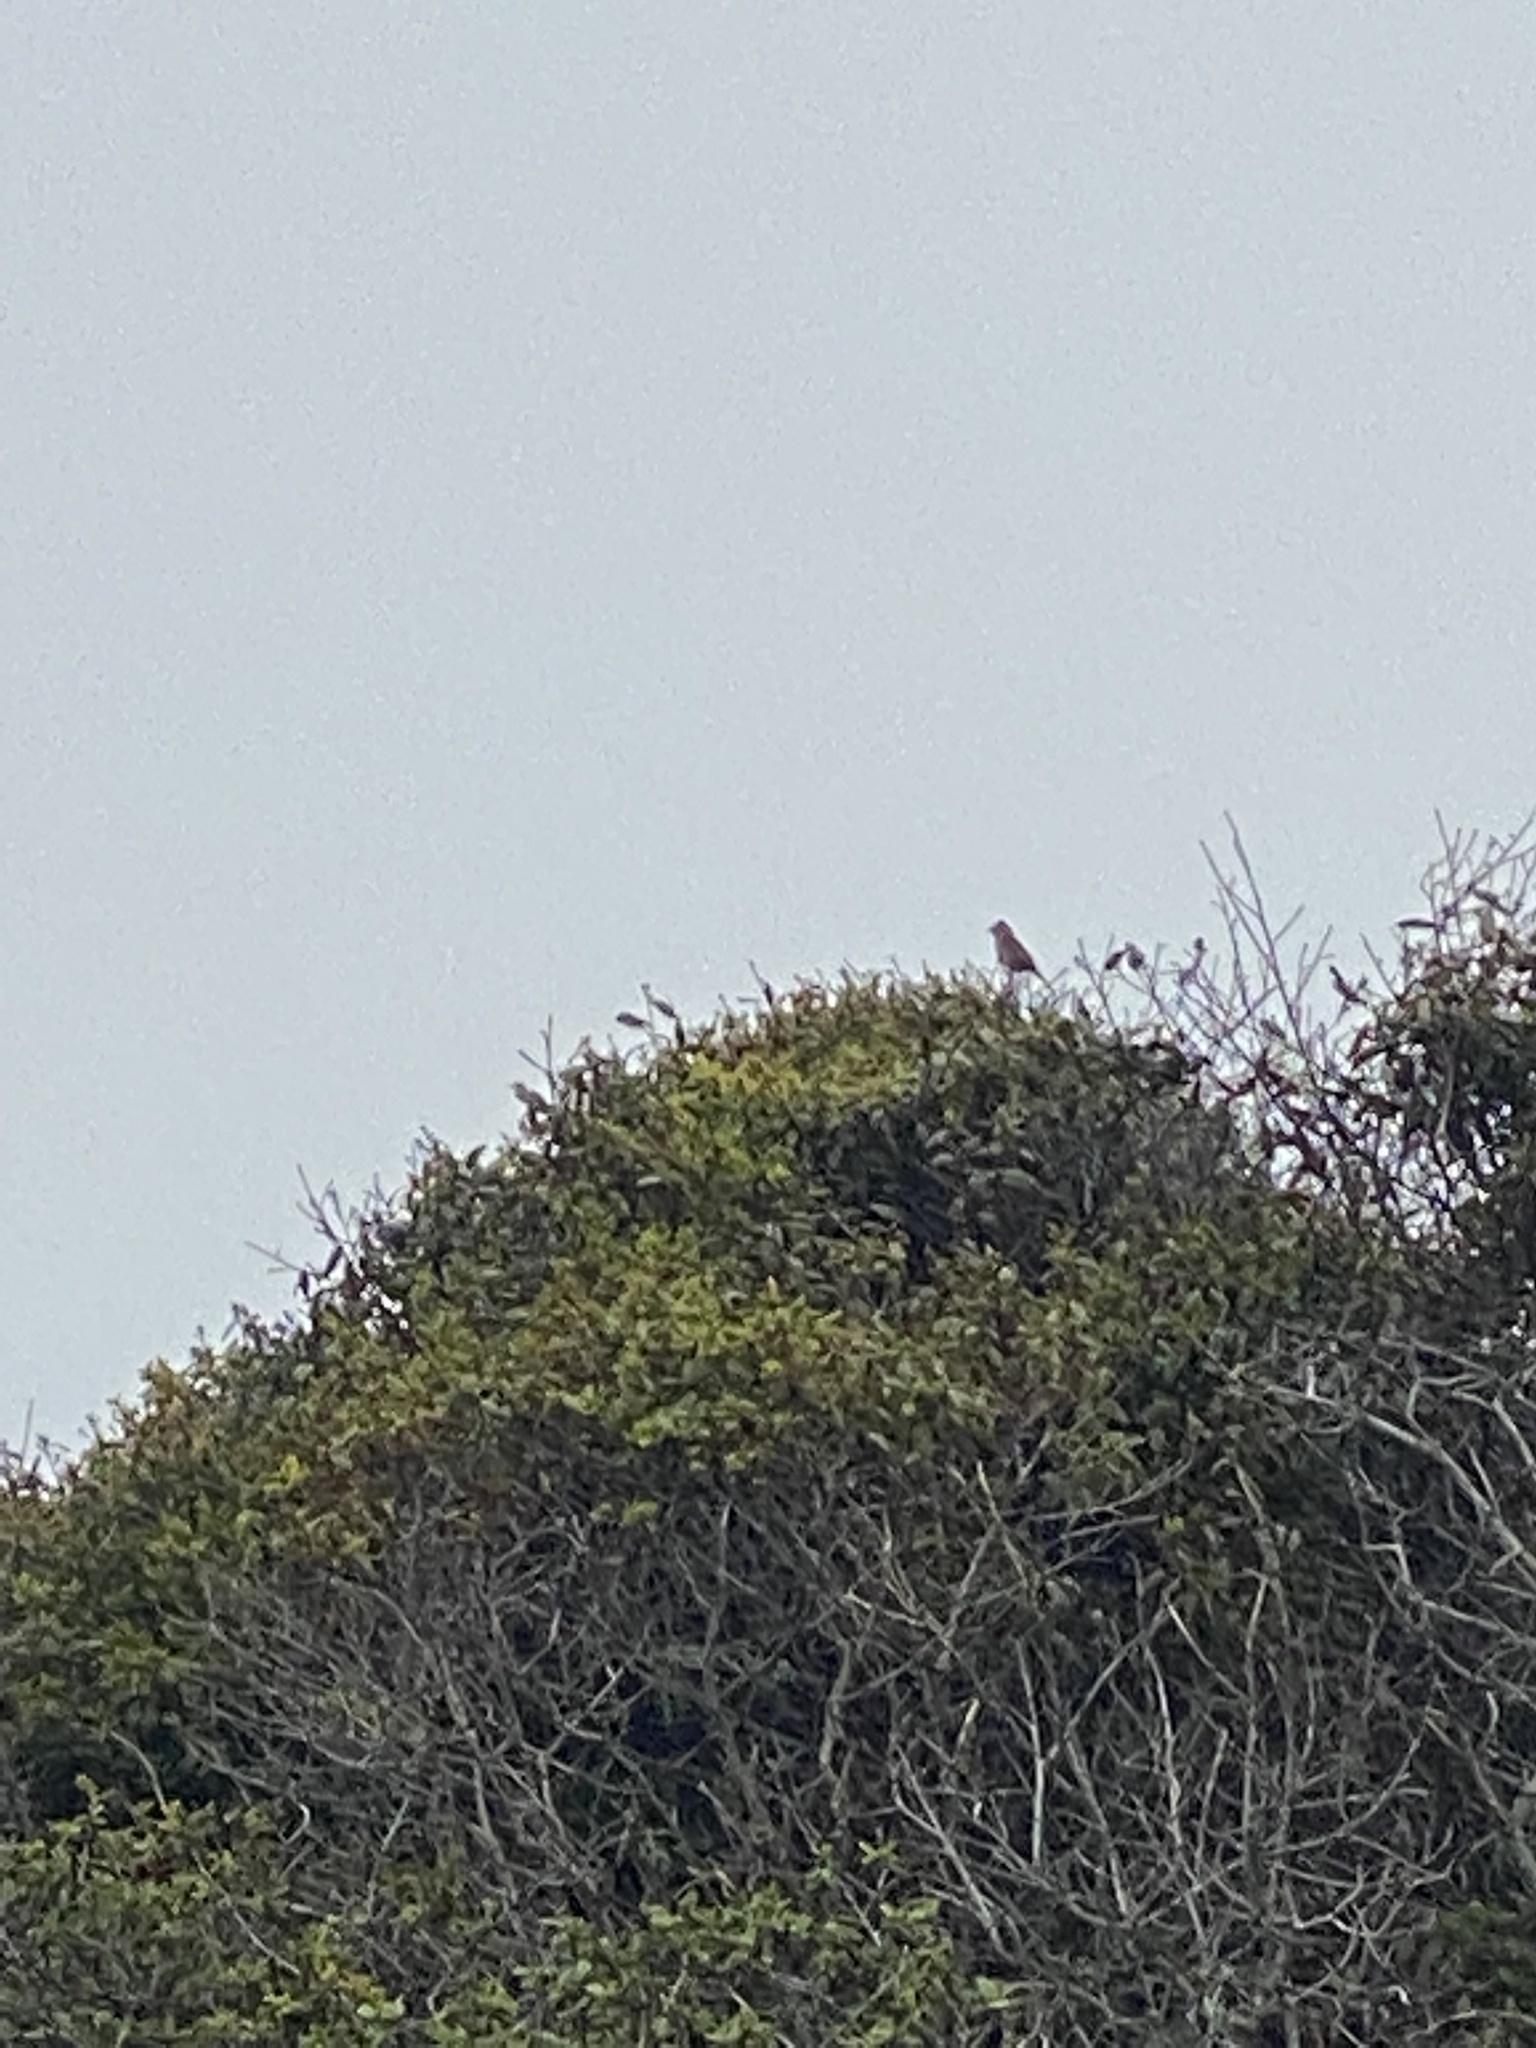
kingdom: Animalia
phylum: Chordata
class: Aves
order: Passeriformes
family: Passerellidae
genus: Pipilo
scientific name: Pipilo maculatus
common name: Spotted towhee
